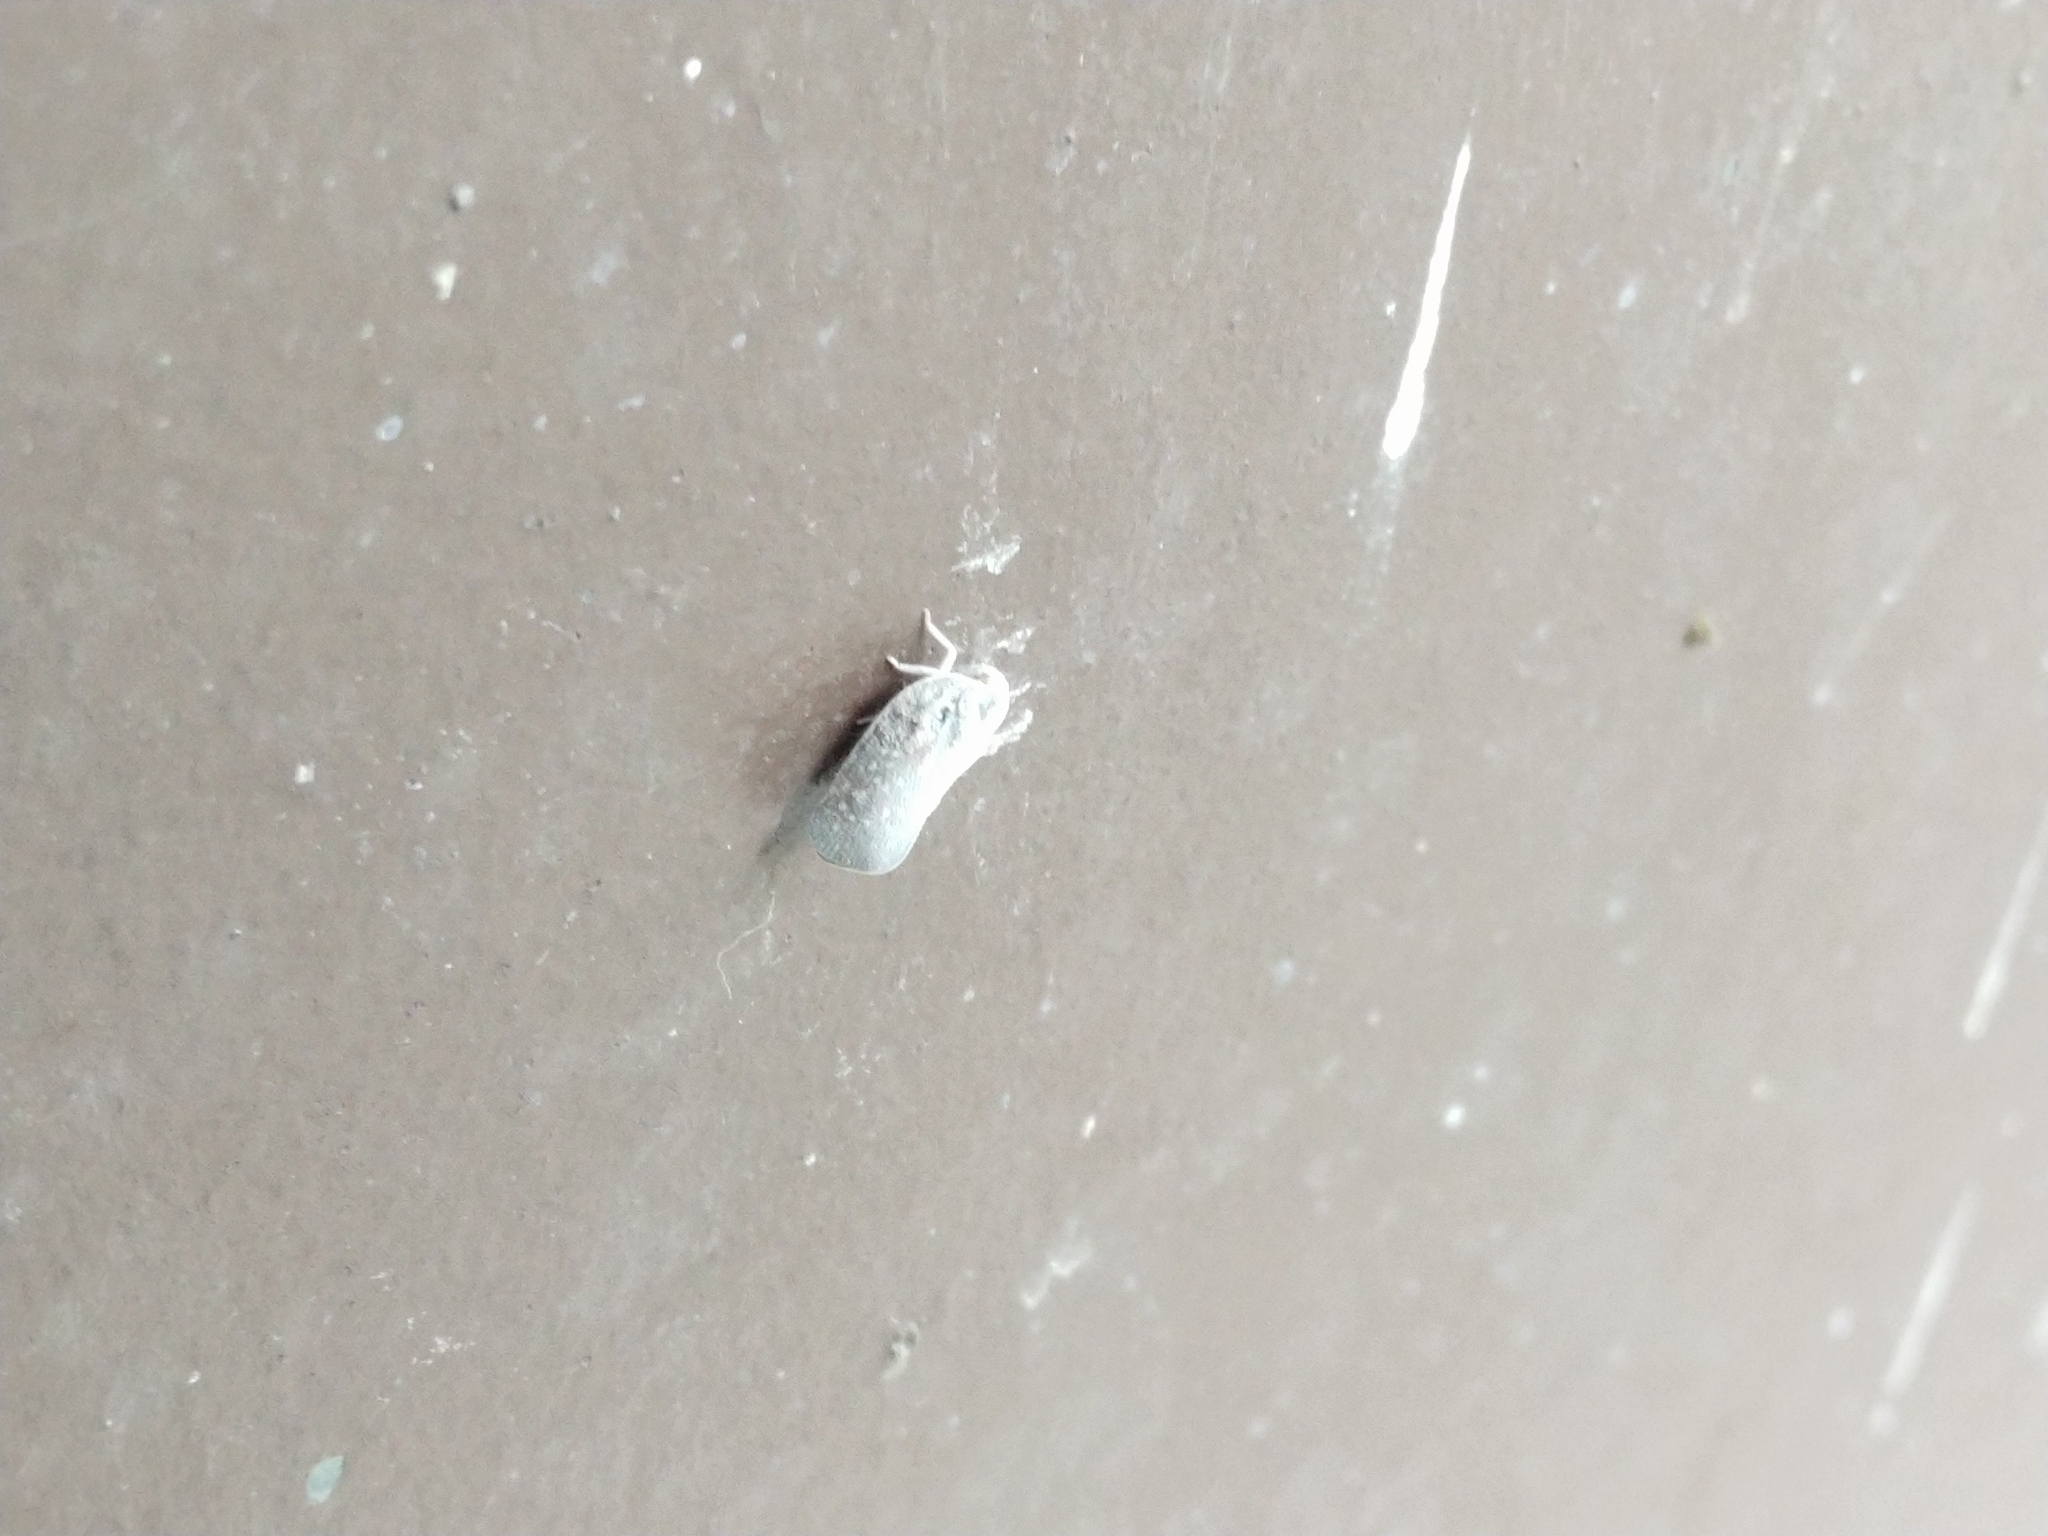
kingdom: Animalia
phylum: Arthropoda
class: Insecta
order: Hemiptera
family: Flatidae
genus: Metcalfa
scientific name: Metcalfa pruinosa
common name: Citrus flatid planthopper
